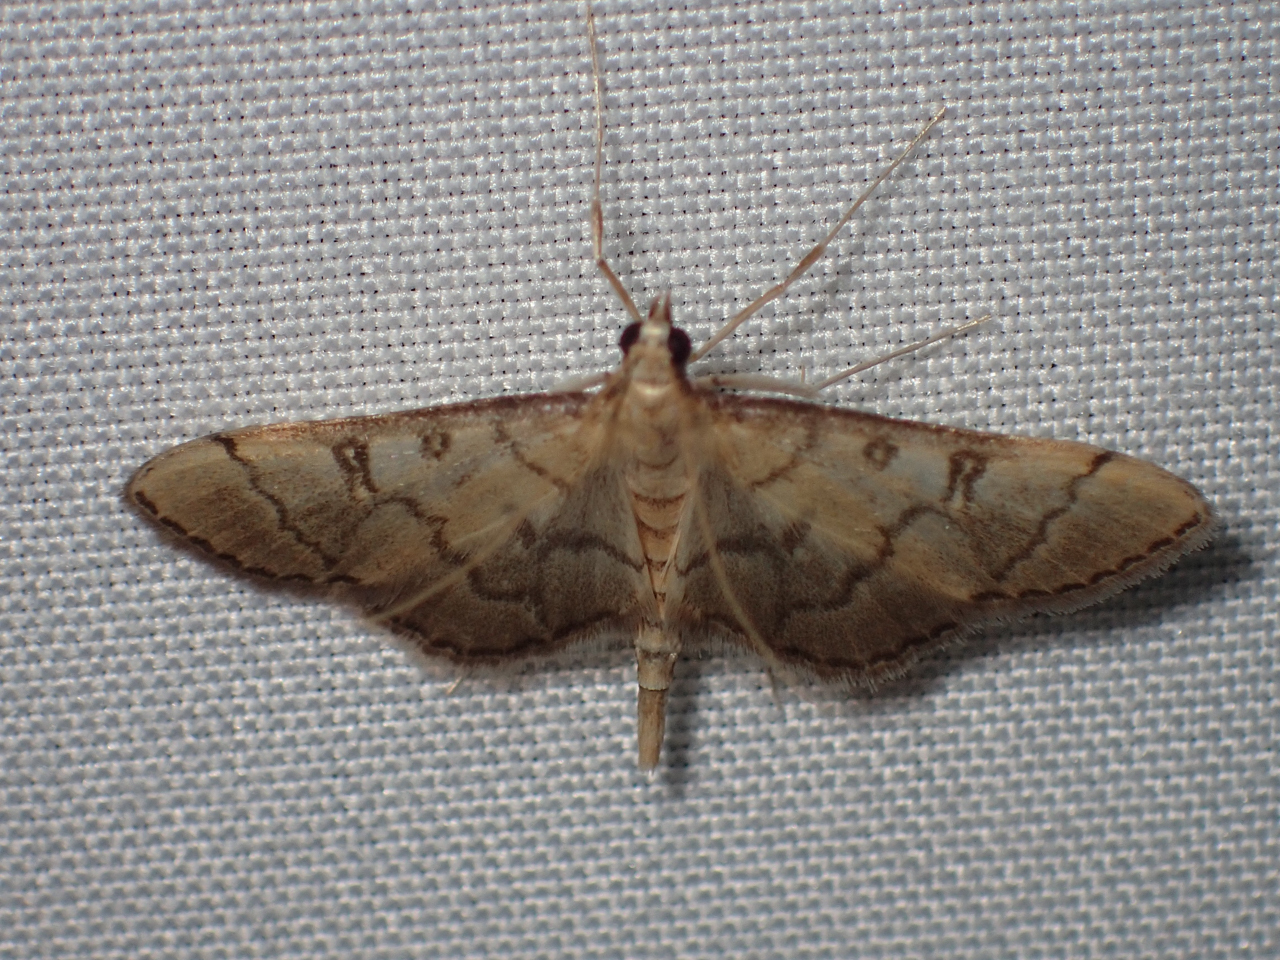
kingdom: Animalia
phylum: Arthropoda
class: Insecta
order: Lepidoptera
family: Crambidae
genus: Lamprosema
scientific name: Lamprosema Blepharomastix ranalis
